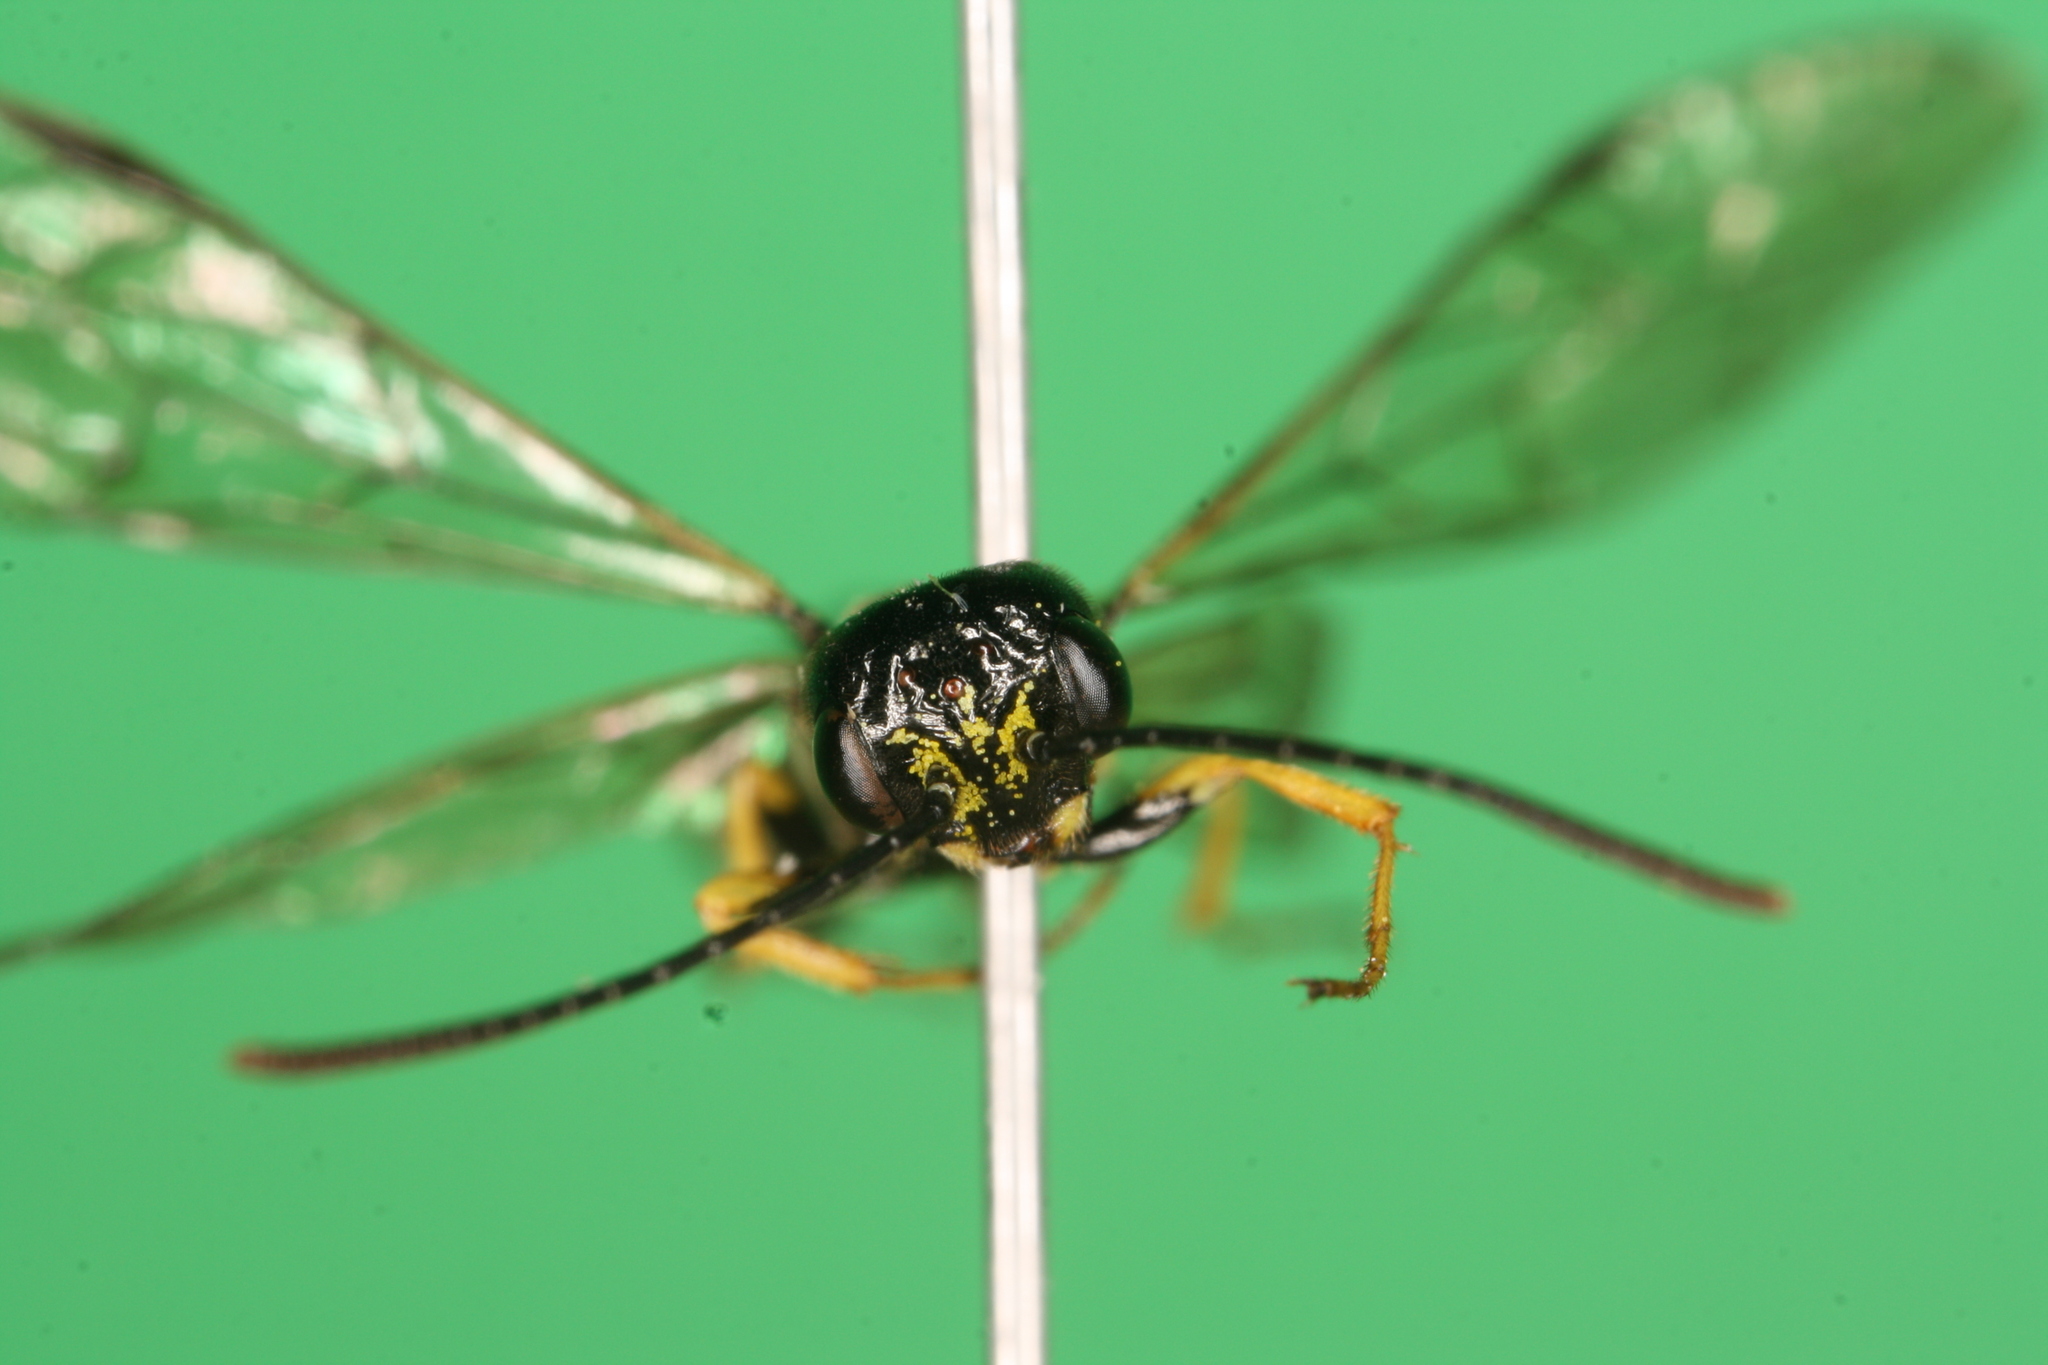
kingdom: Animalia
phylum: Arthropoda
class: Insecta
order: Hymenoptera
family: Cephidae
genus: Cephus
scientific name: Cephus spinipes
